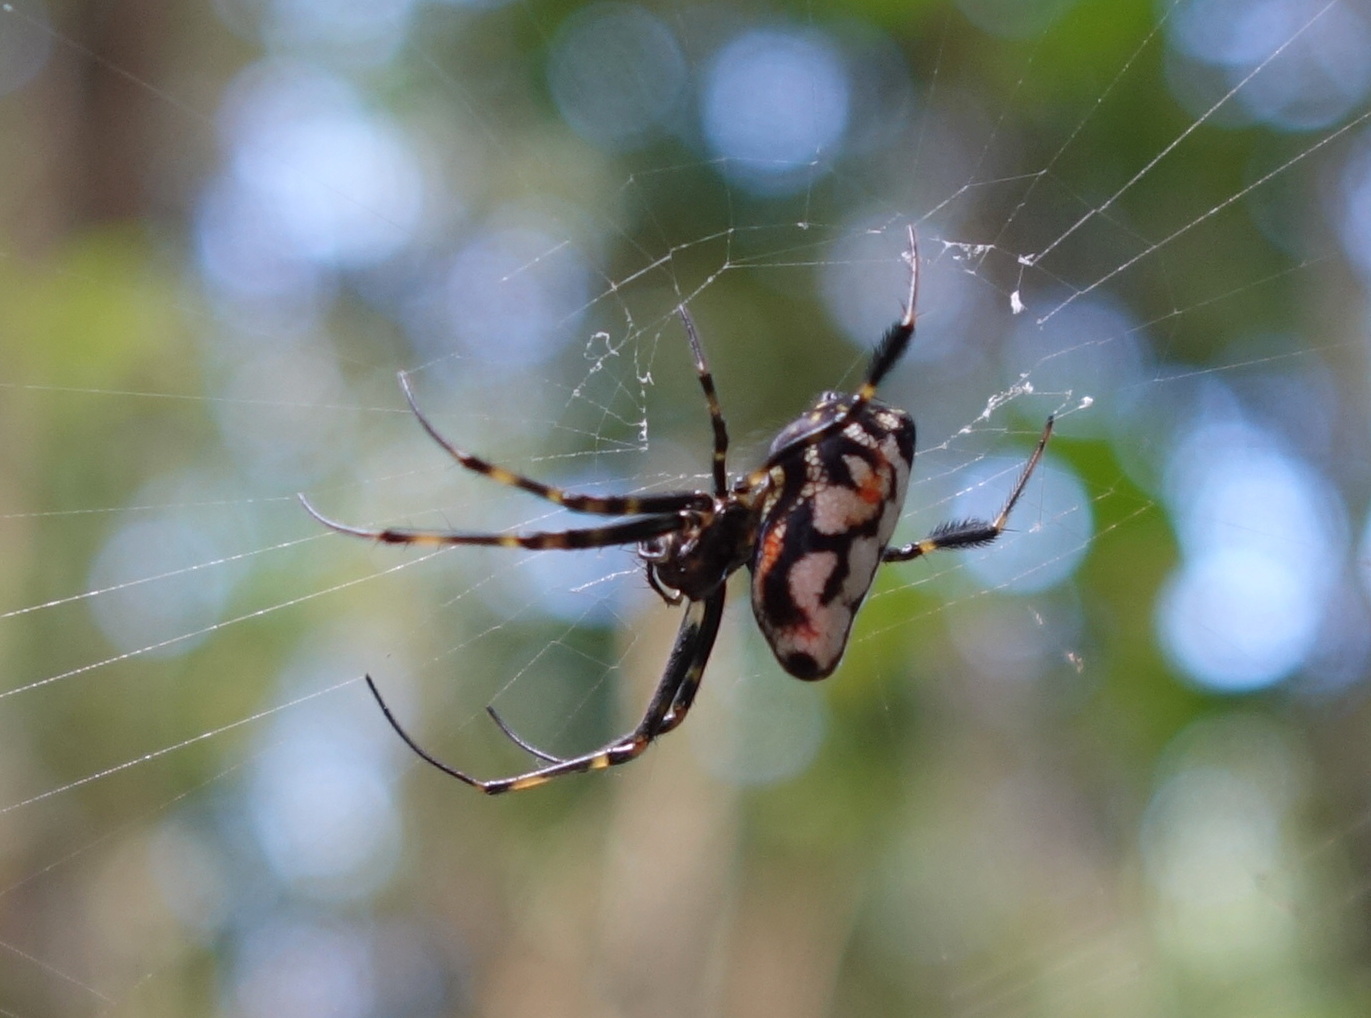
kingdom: Animalia
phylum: Arthropoda
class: Arachnida
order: Araneae
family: Tetragnathidae
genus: Leucauge
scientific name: Leucauge fastigata
